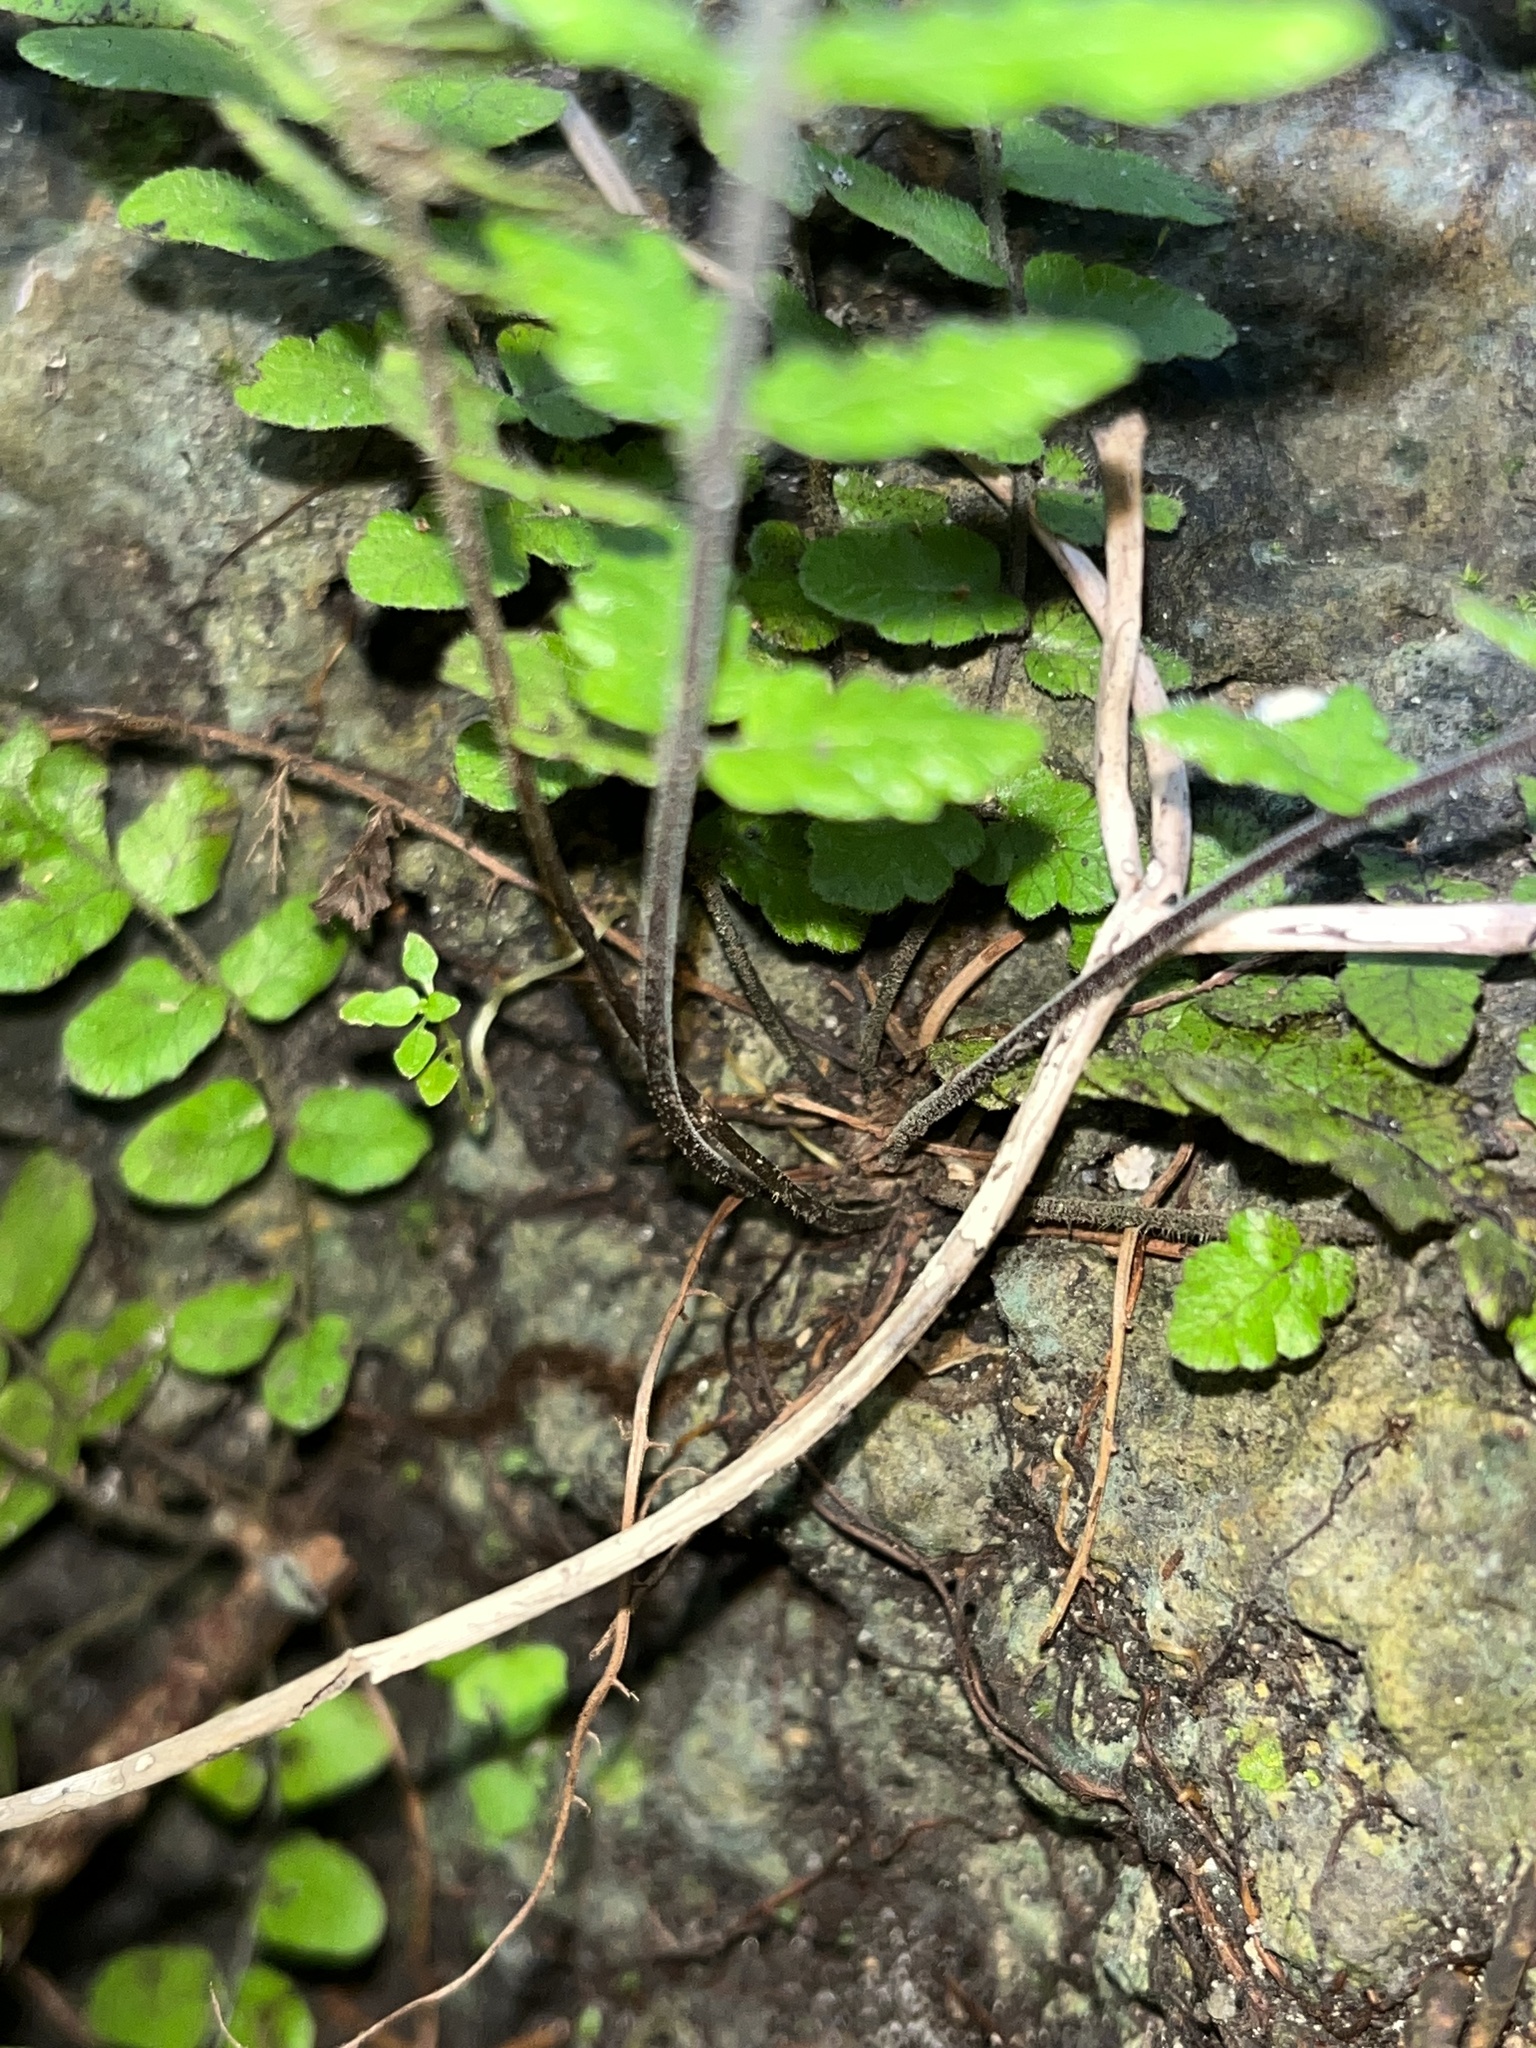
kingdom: Plantae
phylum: Tracheophyta
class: Polypodiopsida
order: Polypodiales
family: Thelypteridaceae
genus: Goniopteris
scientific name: Goniopteris reptans
